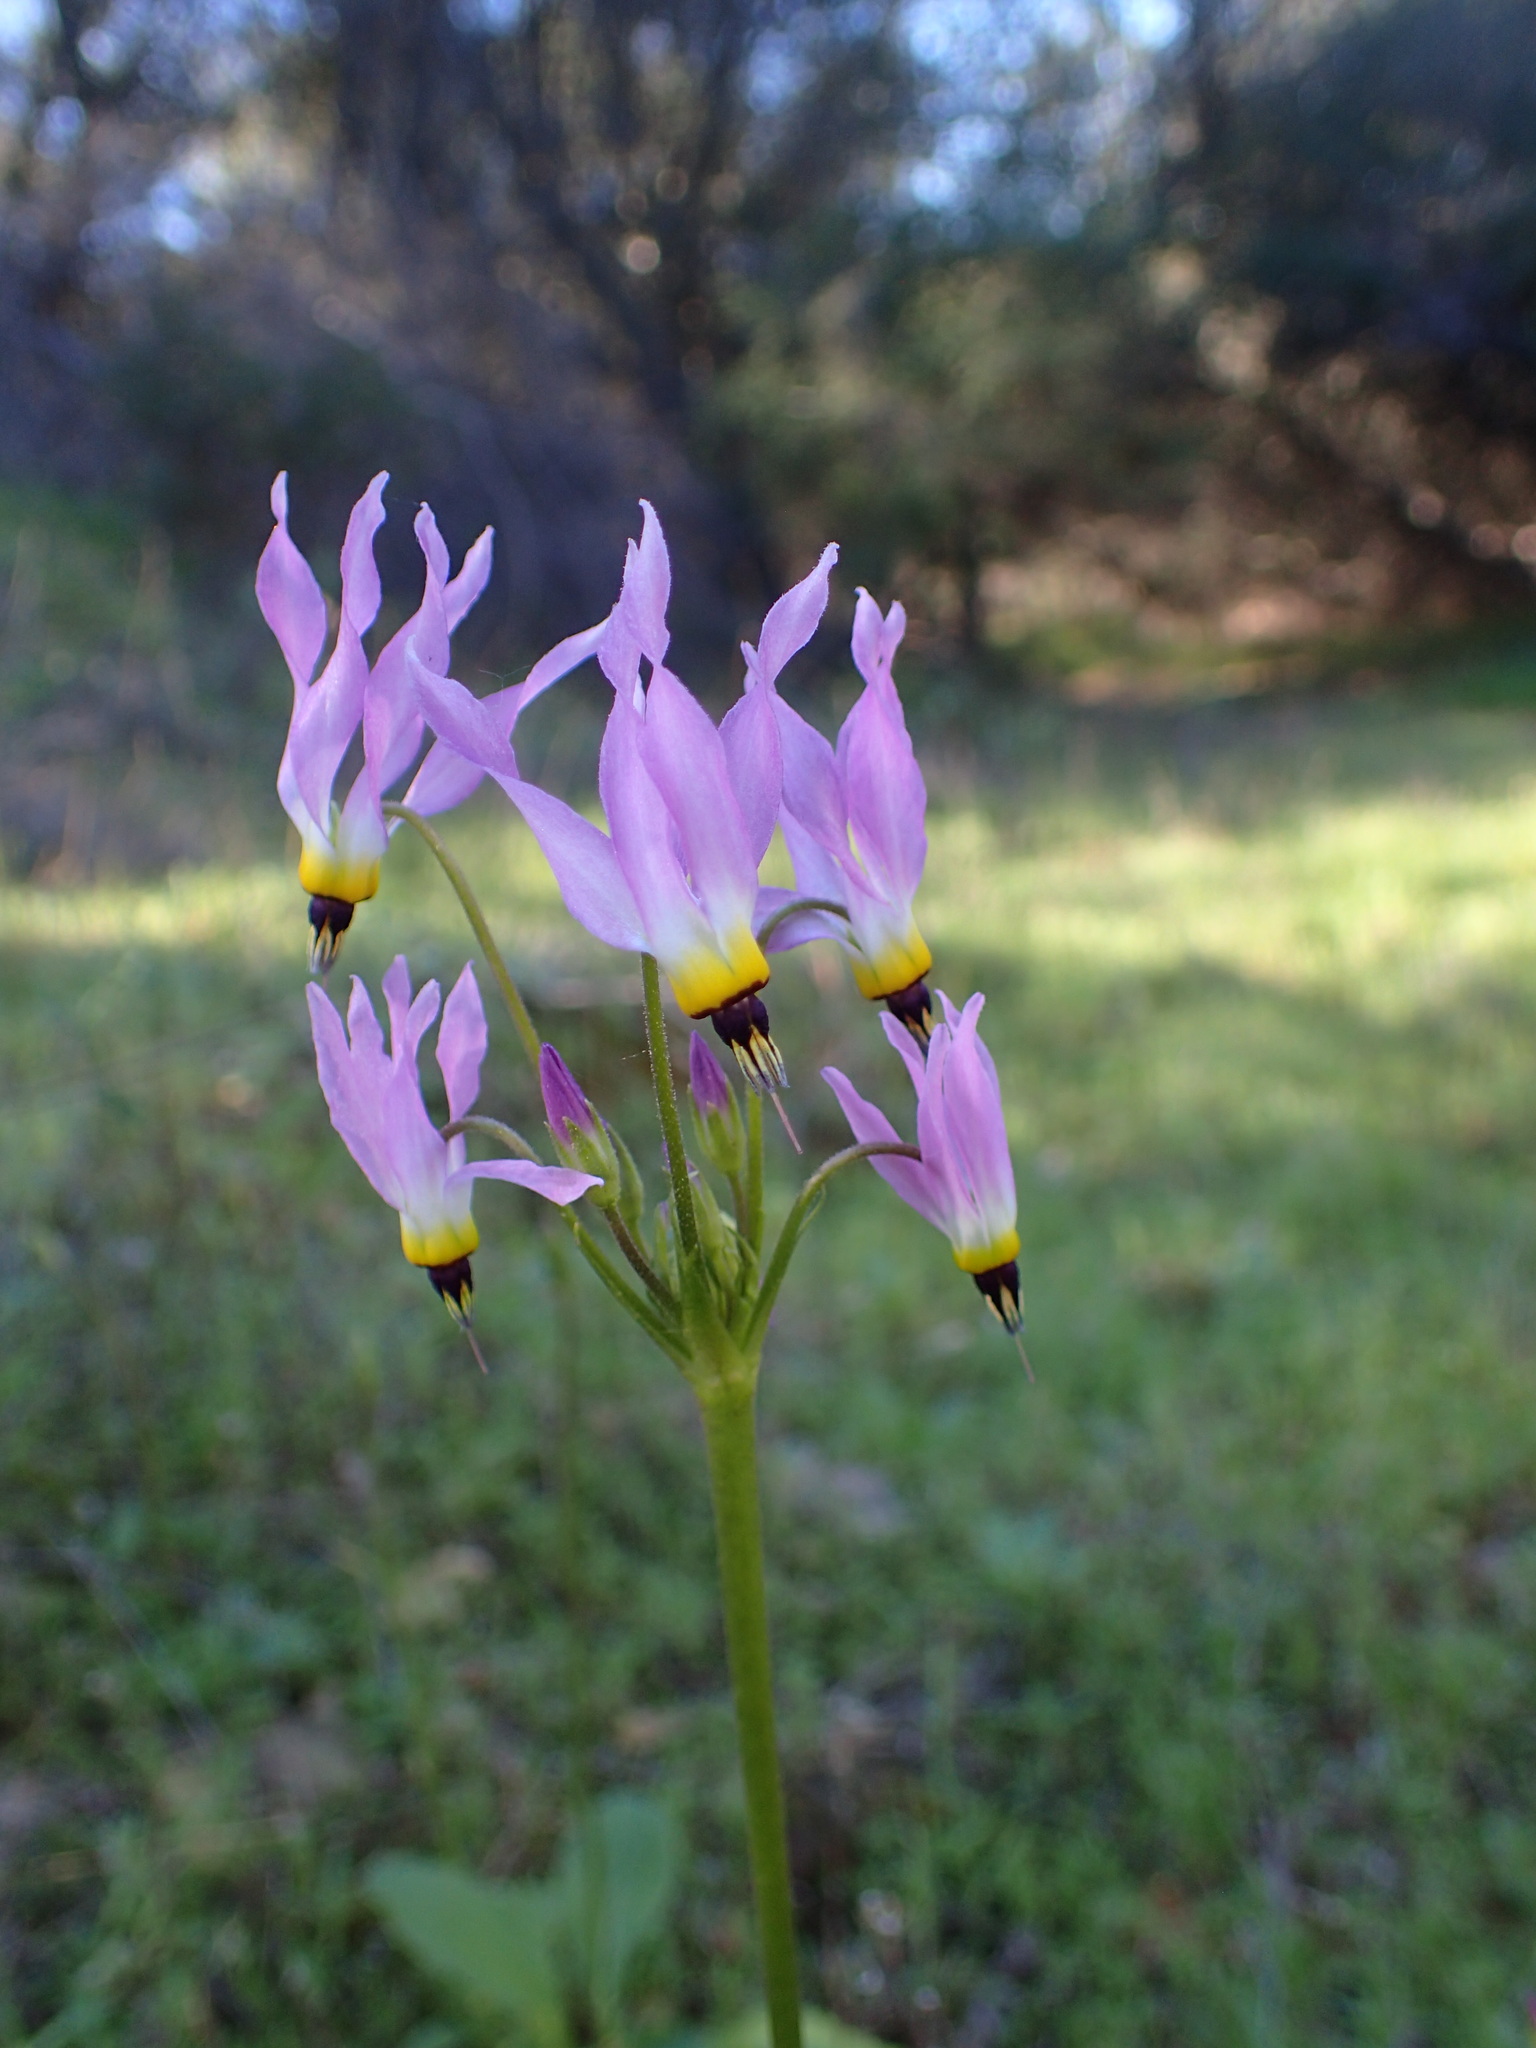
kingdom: Plantae
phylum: Tracheophyta
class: Magnoliopsida
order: Ericales
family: Primulaceae
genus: Dodecatheon
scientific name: Dodecatheon clevelandii
